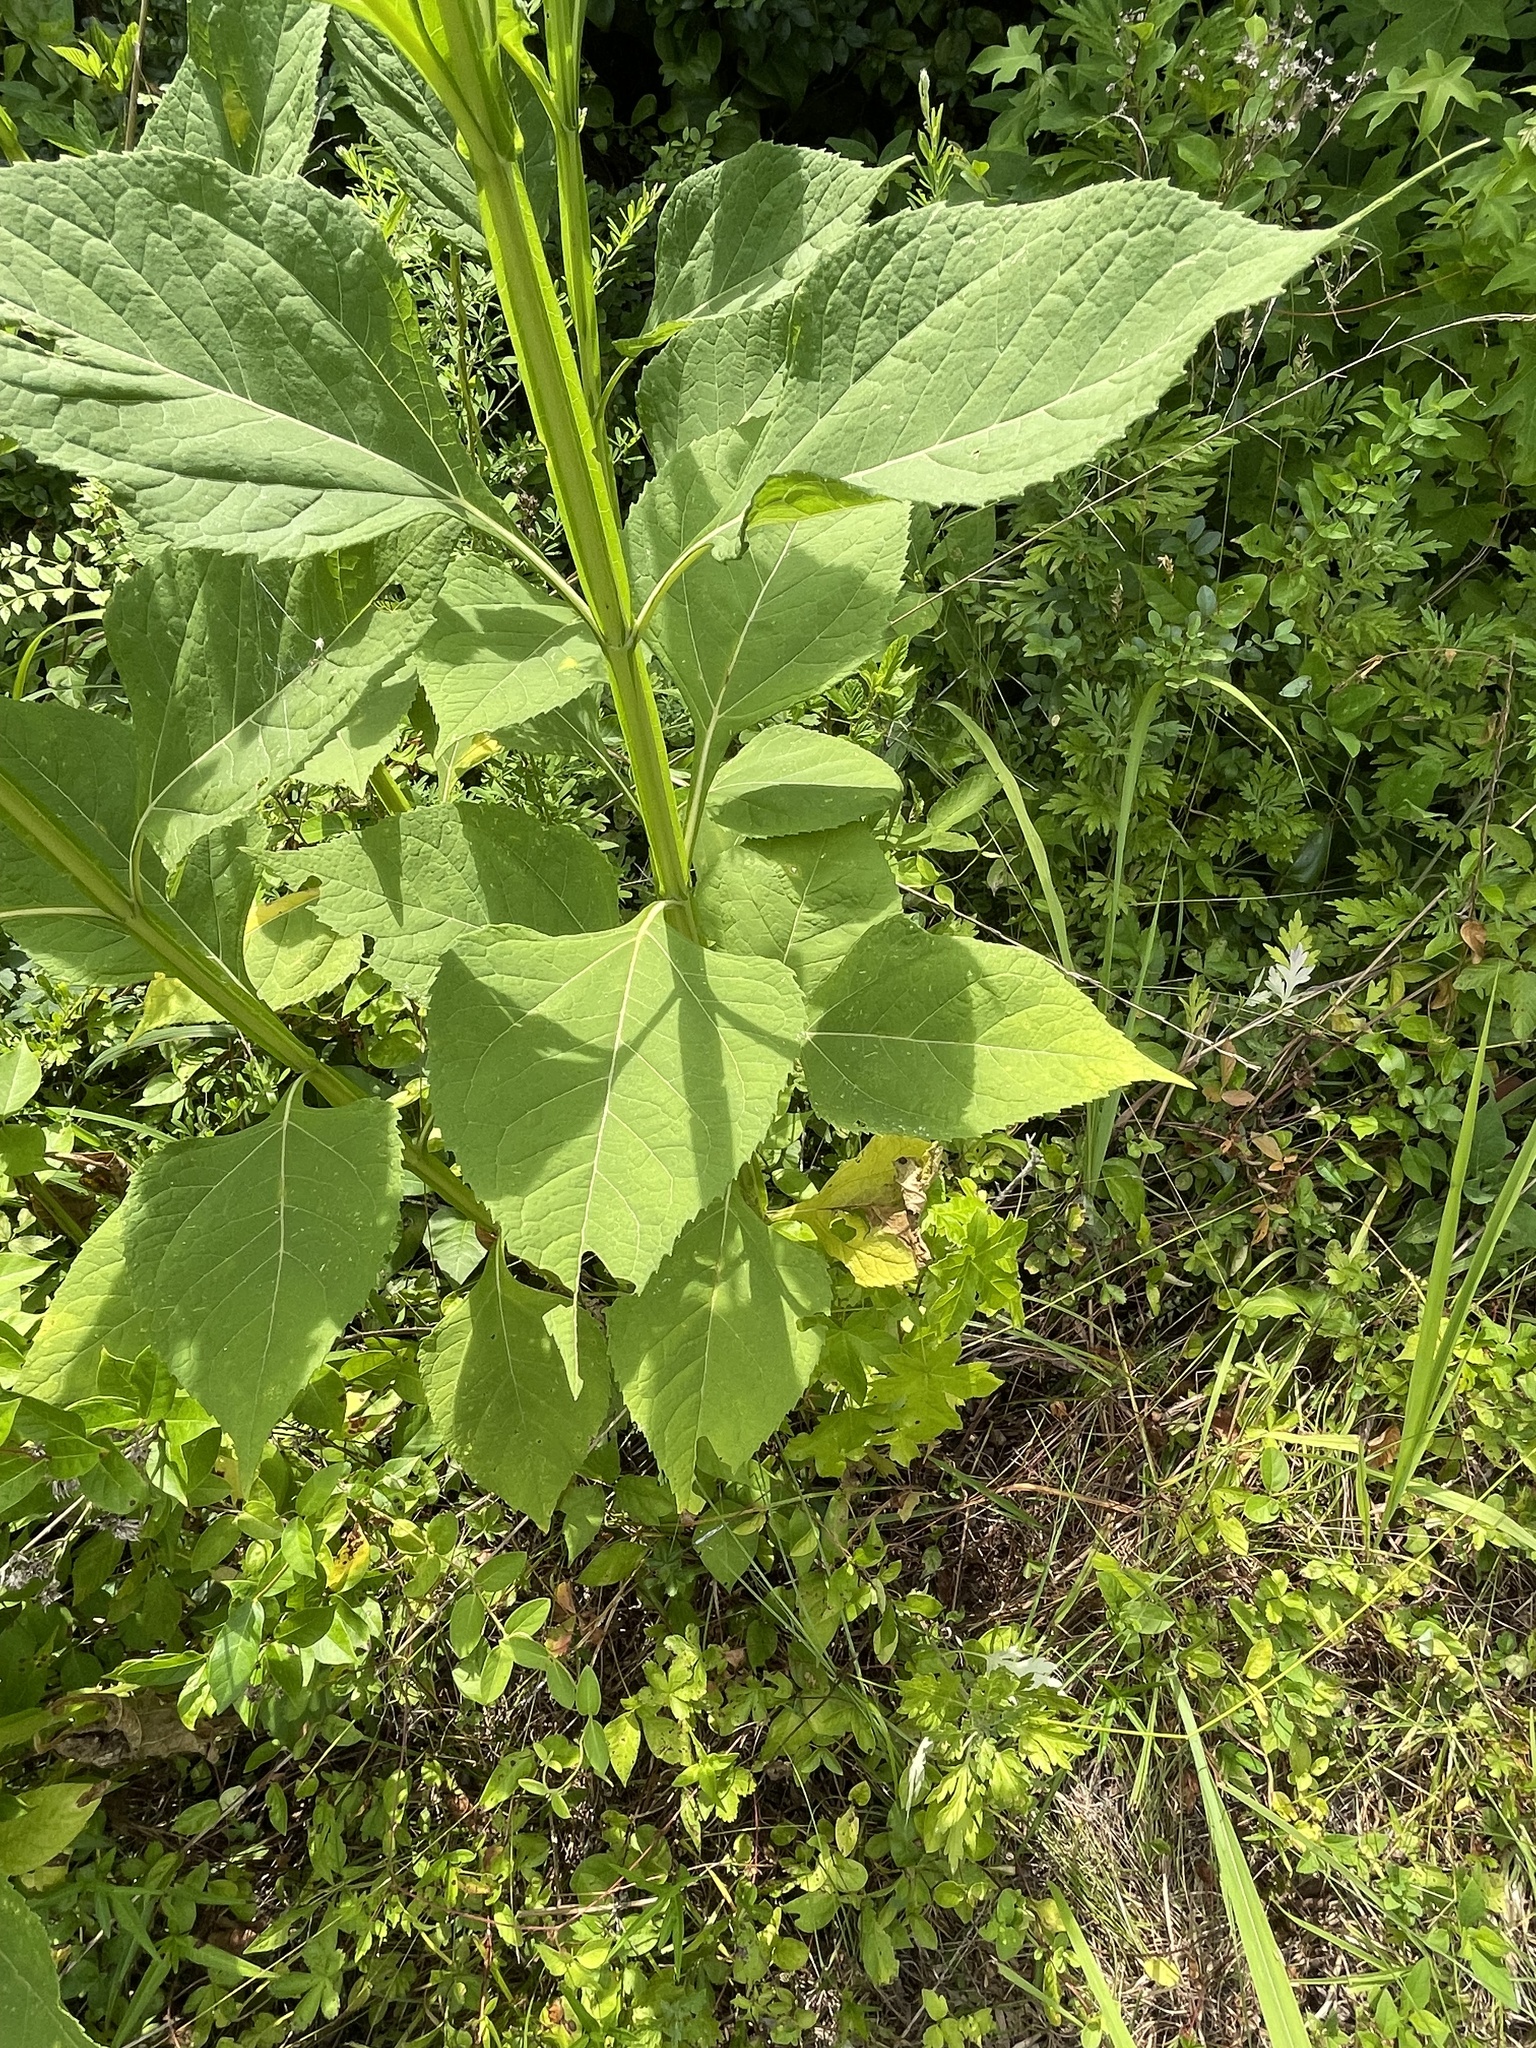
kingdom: Plantae
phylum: Tracheophyta
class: Magnoliopsida
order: Asterales
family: Asteraceae
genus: Verbesina
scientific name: Verbesina occidentalis
